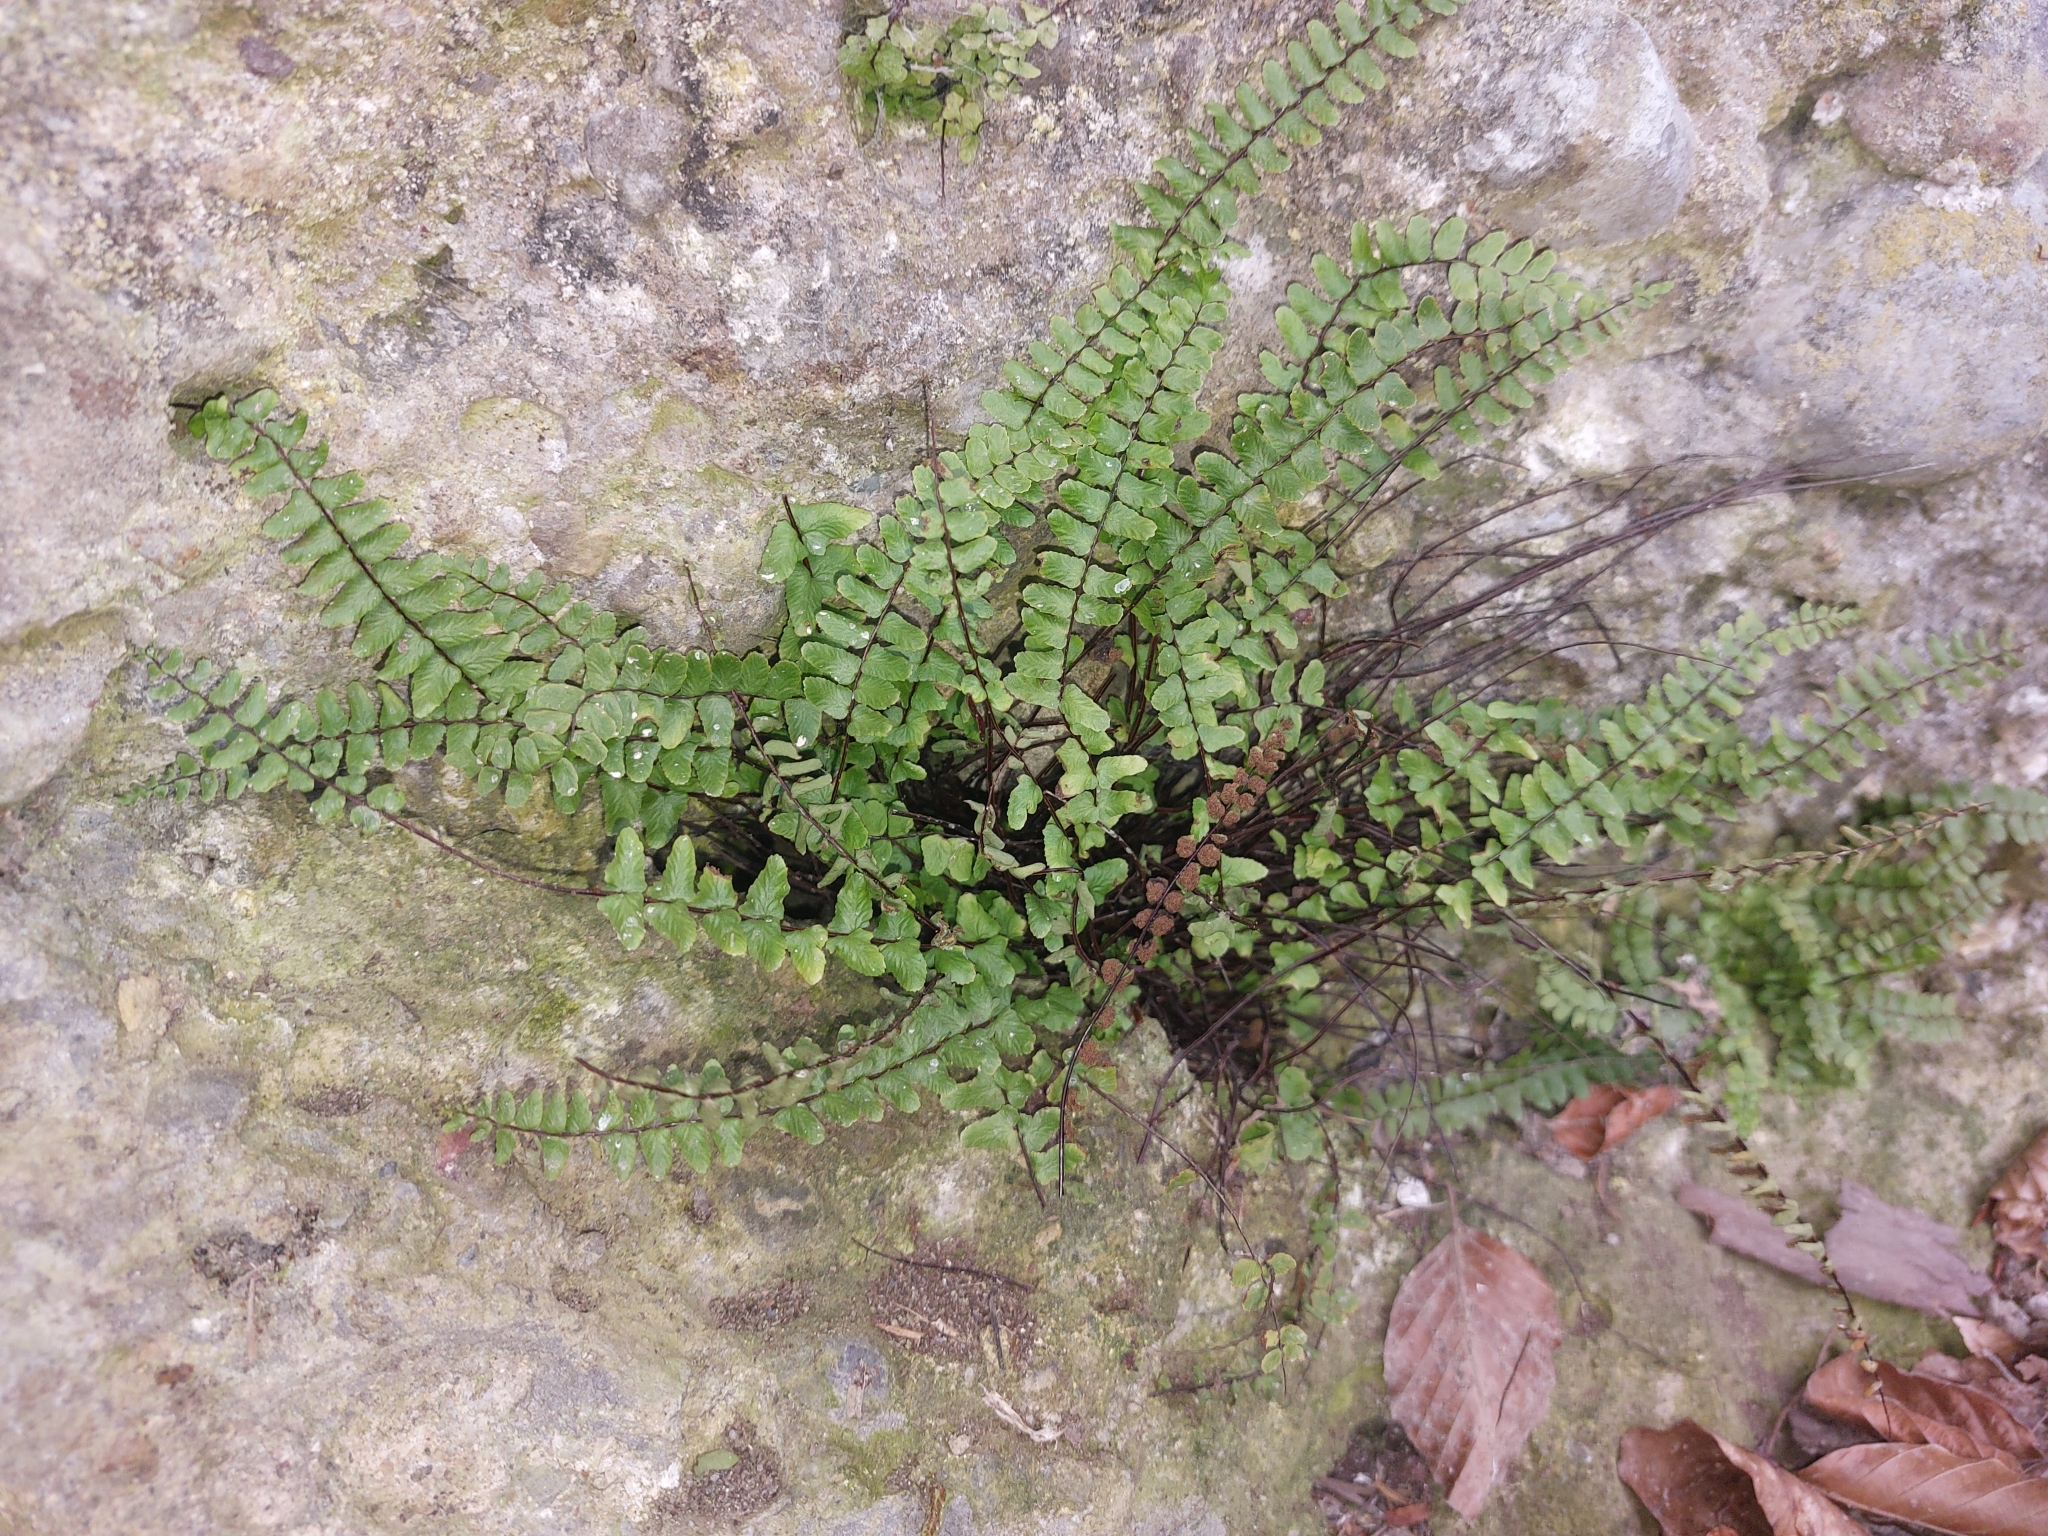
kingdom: Plantae
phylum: Tracheophyta
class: Polypodiopsida
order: Polypodiales
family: Aspleniaceae
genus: Asplenium
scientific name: Asplenium trichomanes
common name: Maidenhair spleenwort
